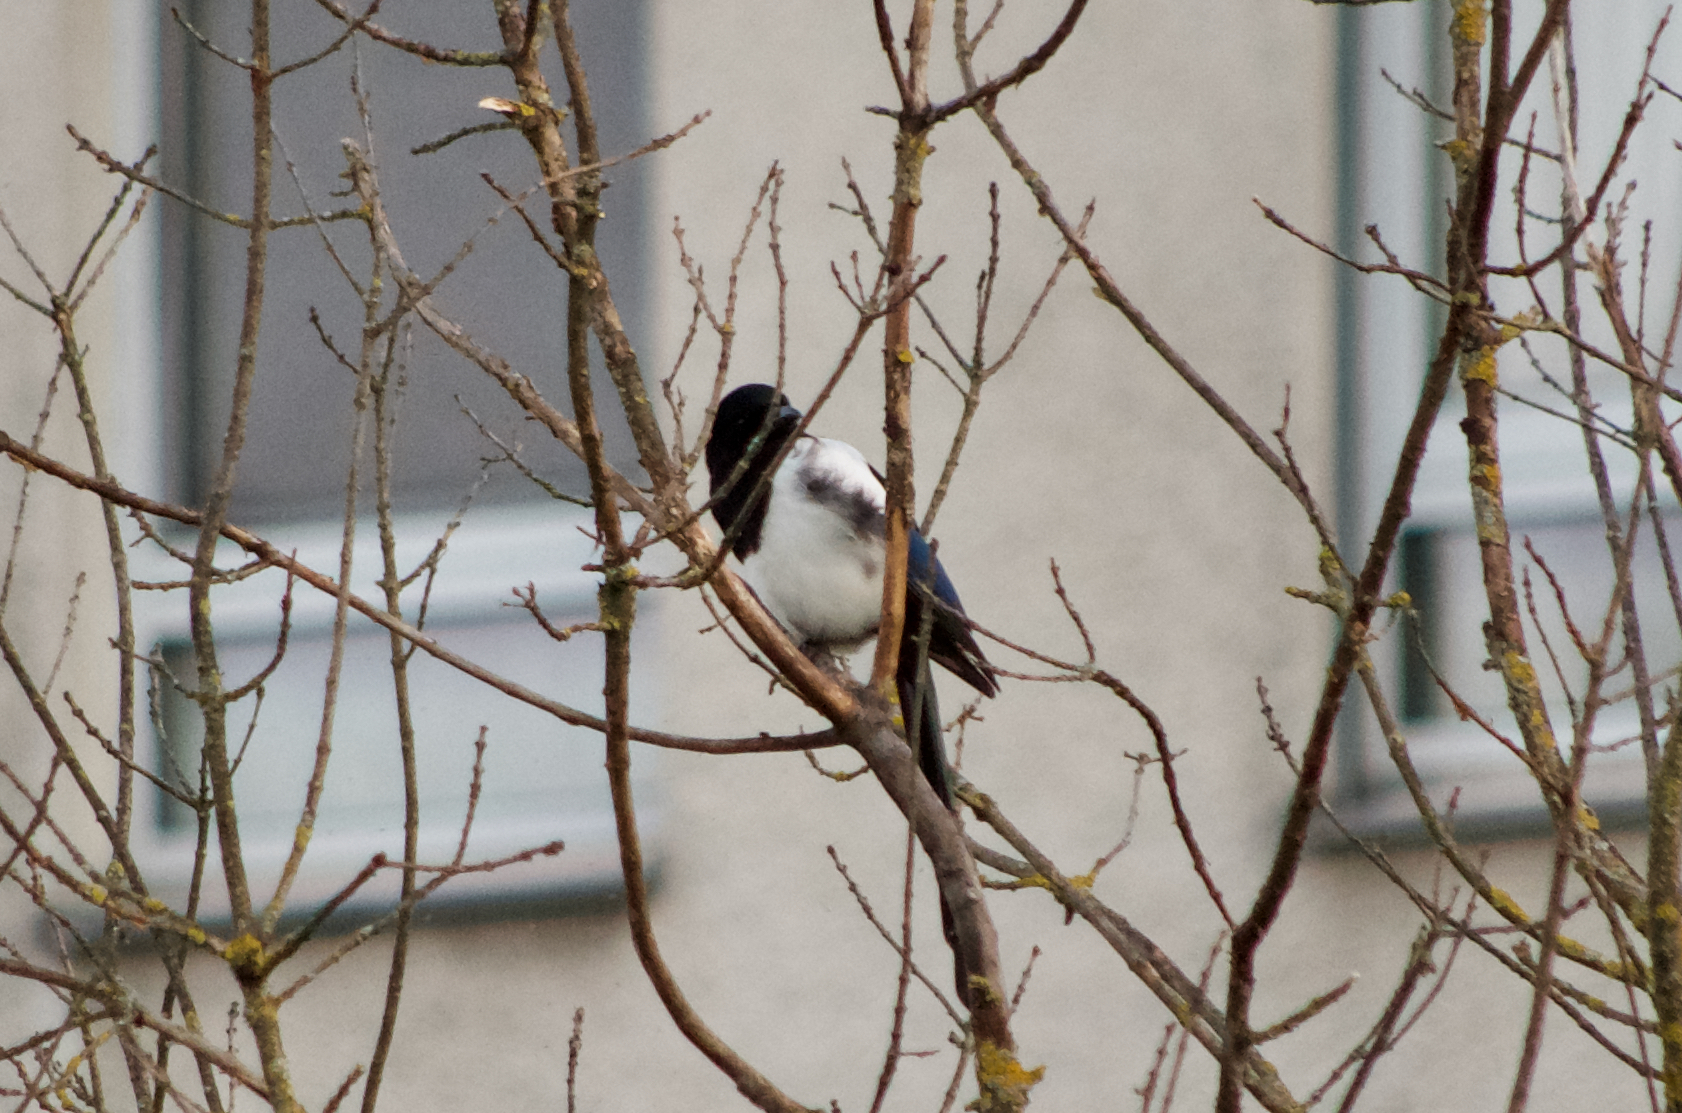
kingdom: Animalia
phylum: Chordata
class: Aves
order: Passeriformes
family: Corvidae
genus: Pica
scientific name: Pica pica
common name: Eurasian magpie
